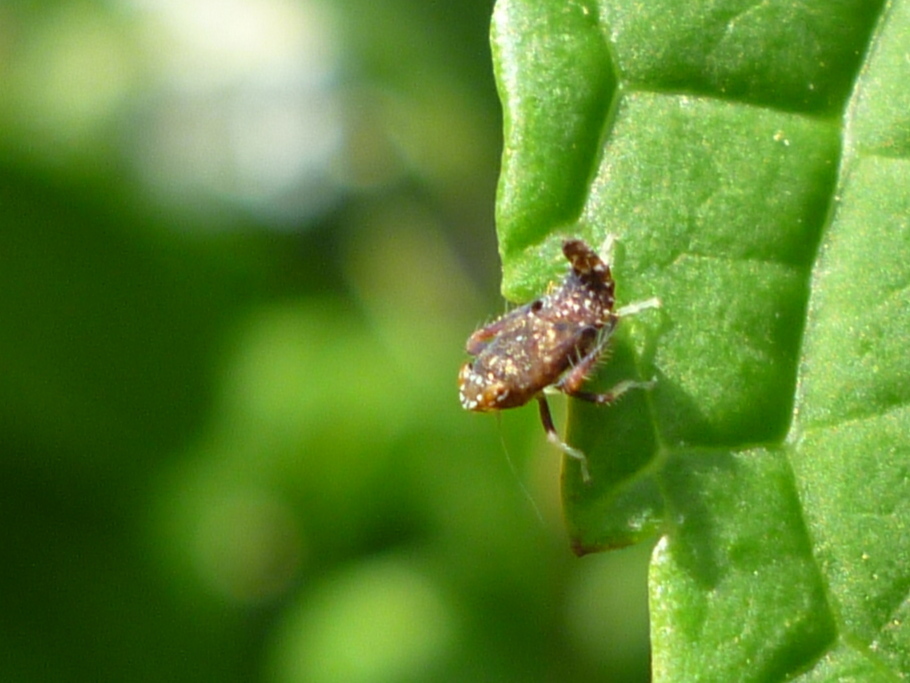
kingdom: Animalia
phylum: Arthropoda
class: Insecta
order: Hemiptera
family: Cicadellidae
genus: Orientus
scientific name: Orientus ishidae
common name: Japanese leafhopper
